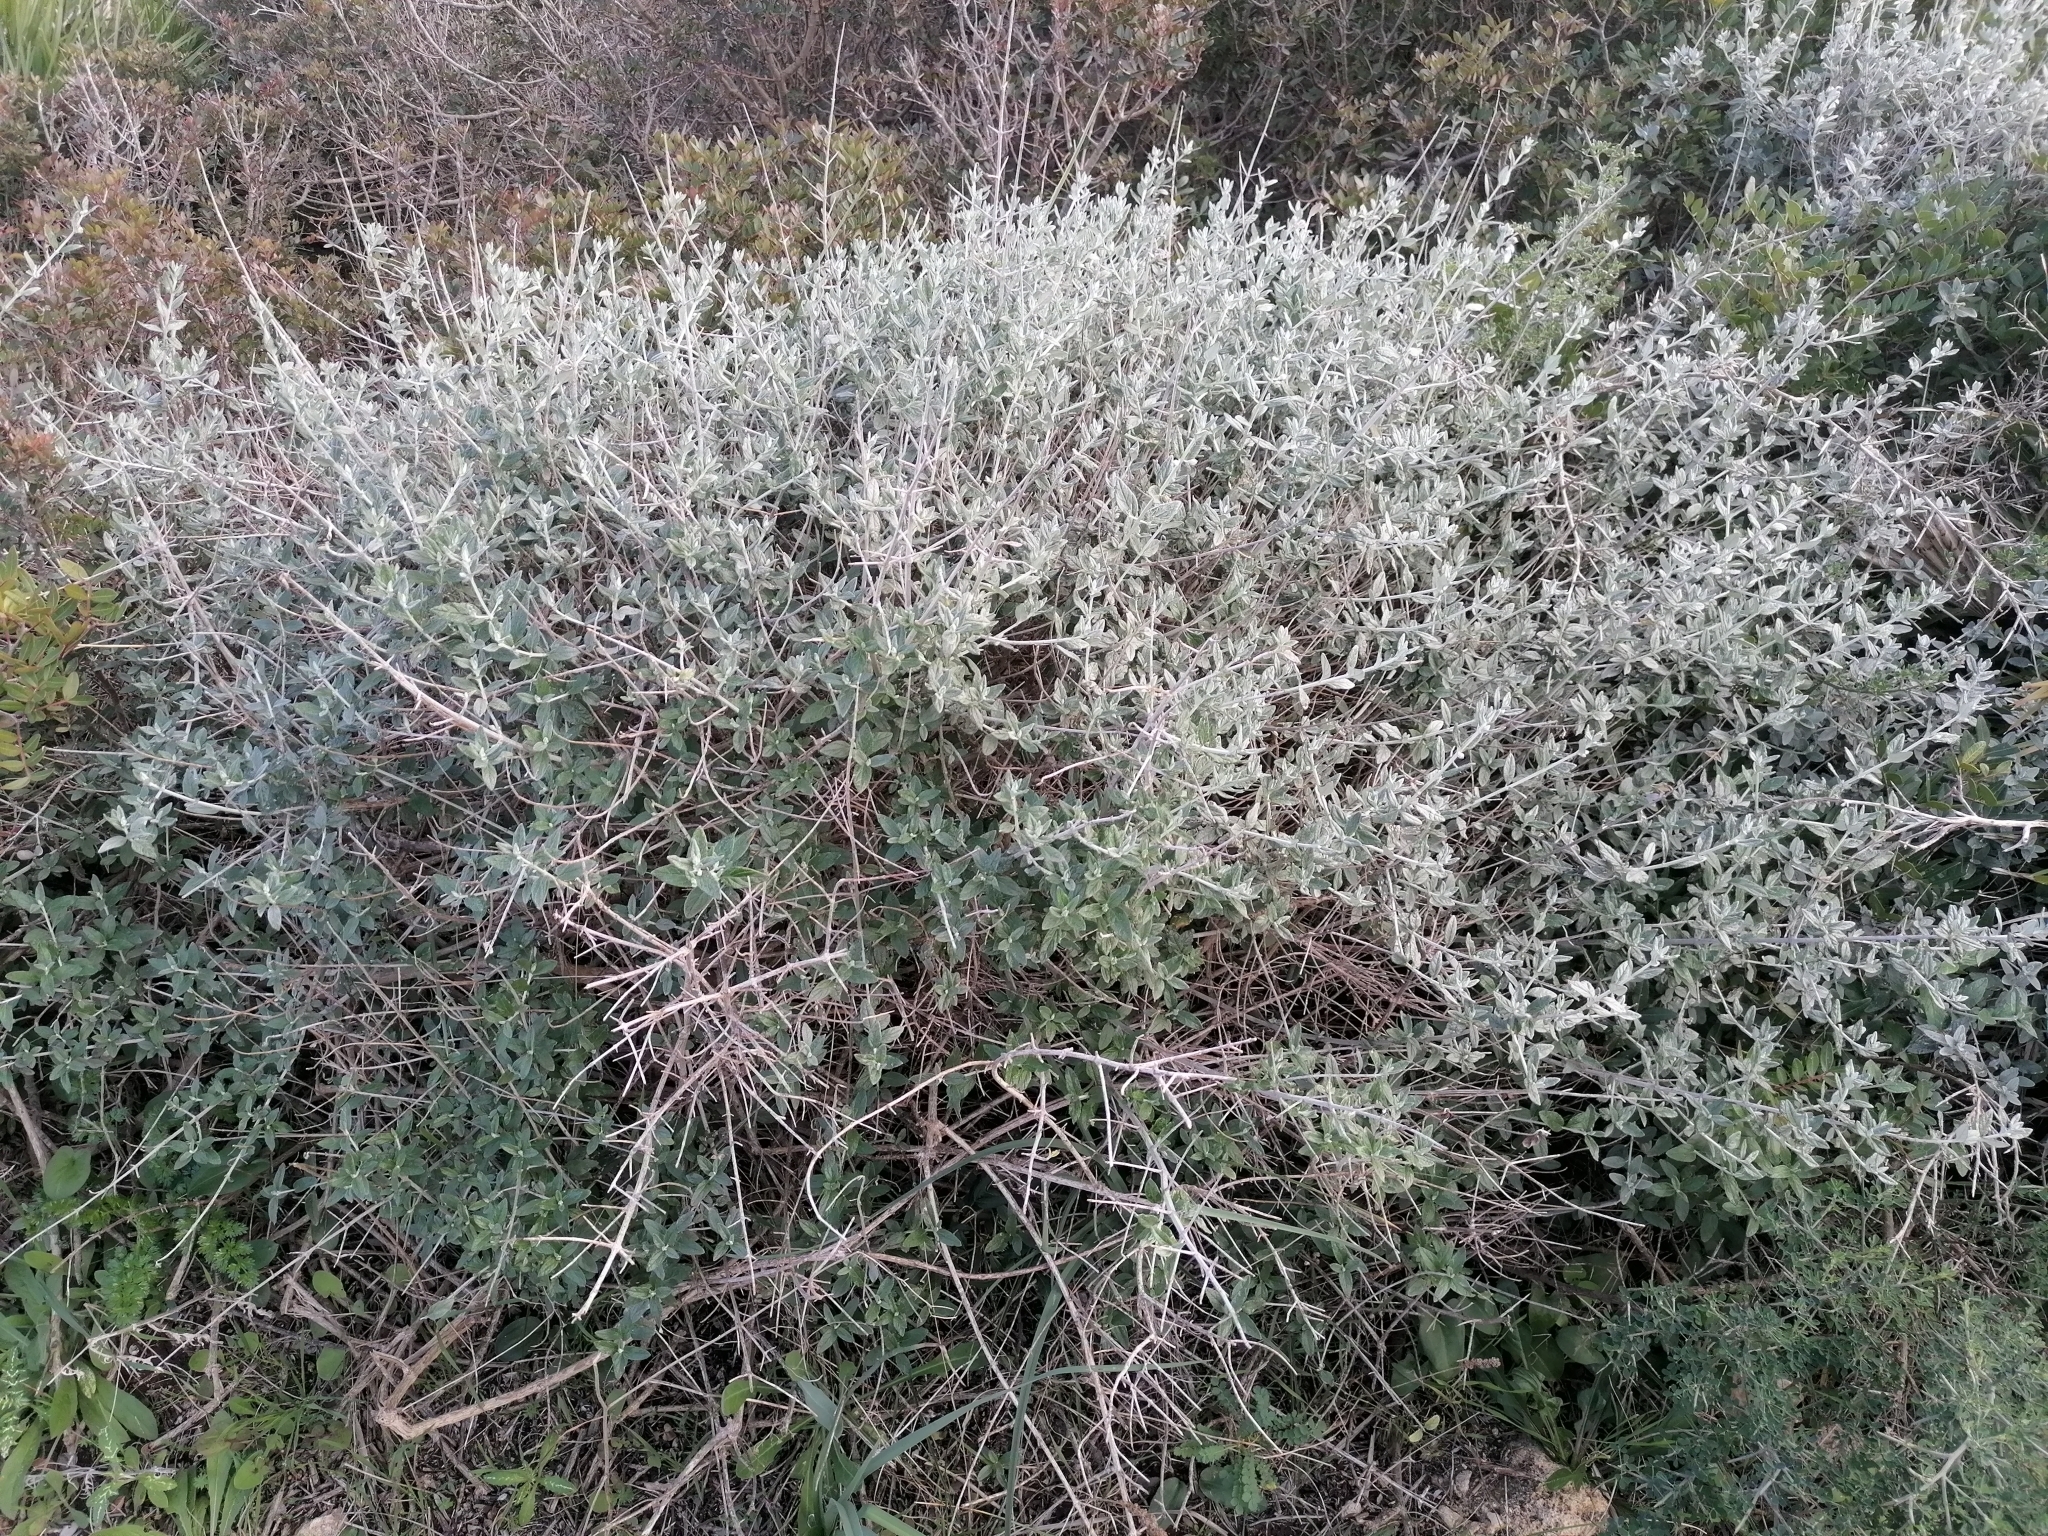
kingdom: Plantae
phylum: Tracheophyta
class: Magnoliopsida
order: Lamiales
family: Lamiaceae
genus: Teucrium
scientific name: Teucrium fruticans
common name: Shrubby germander
